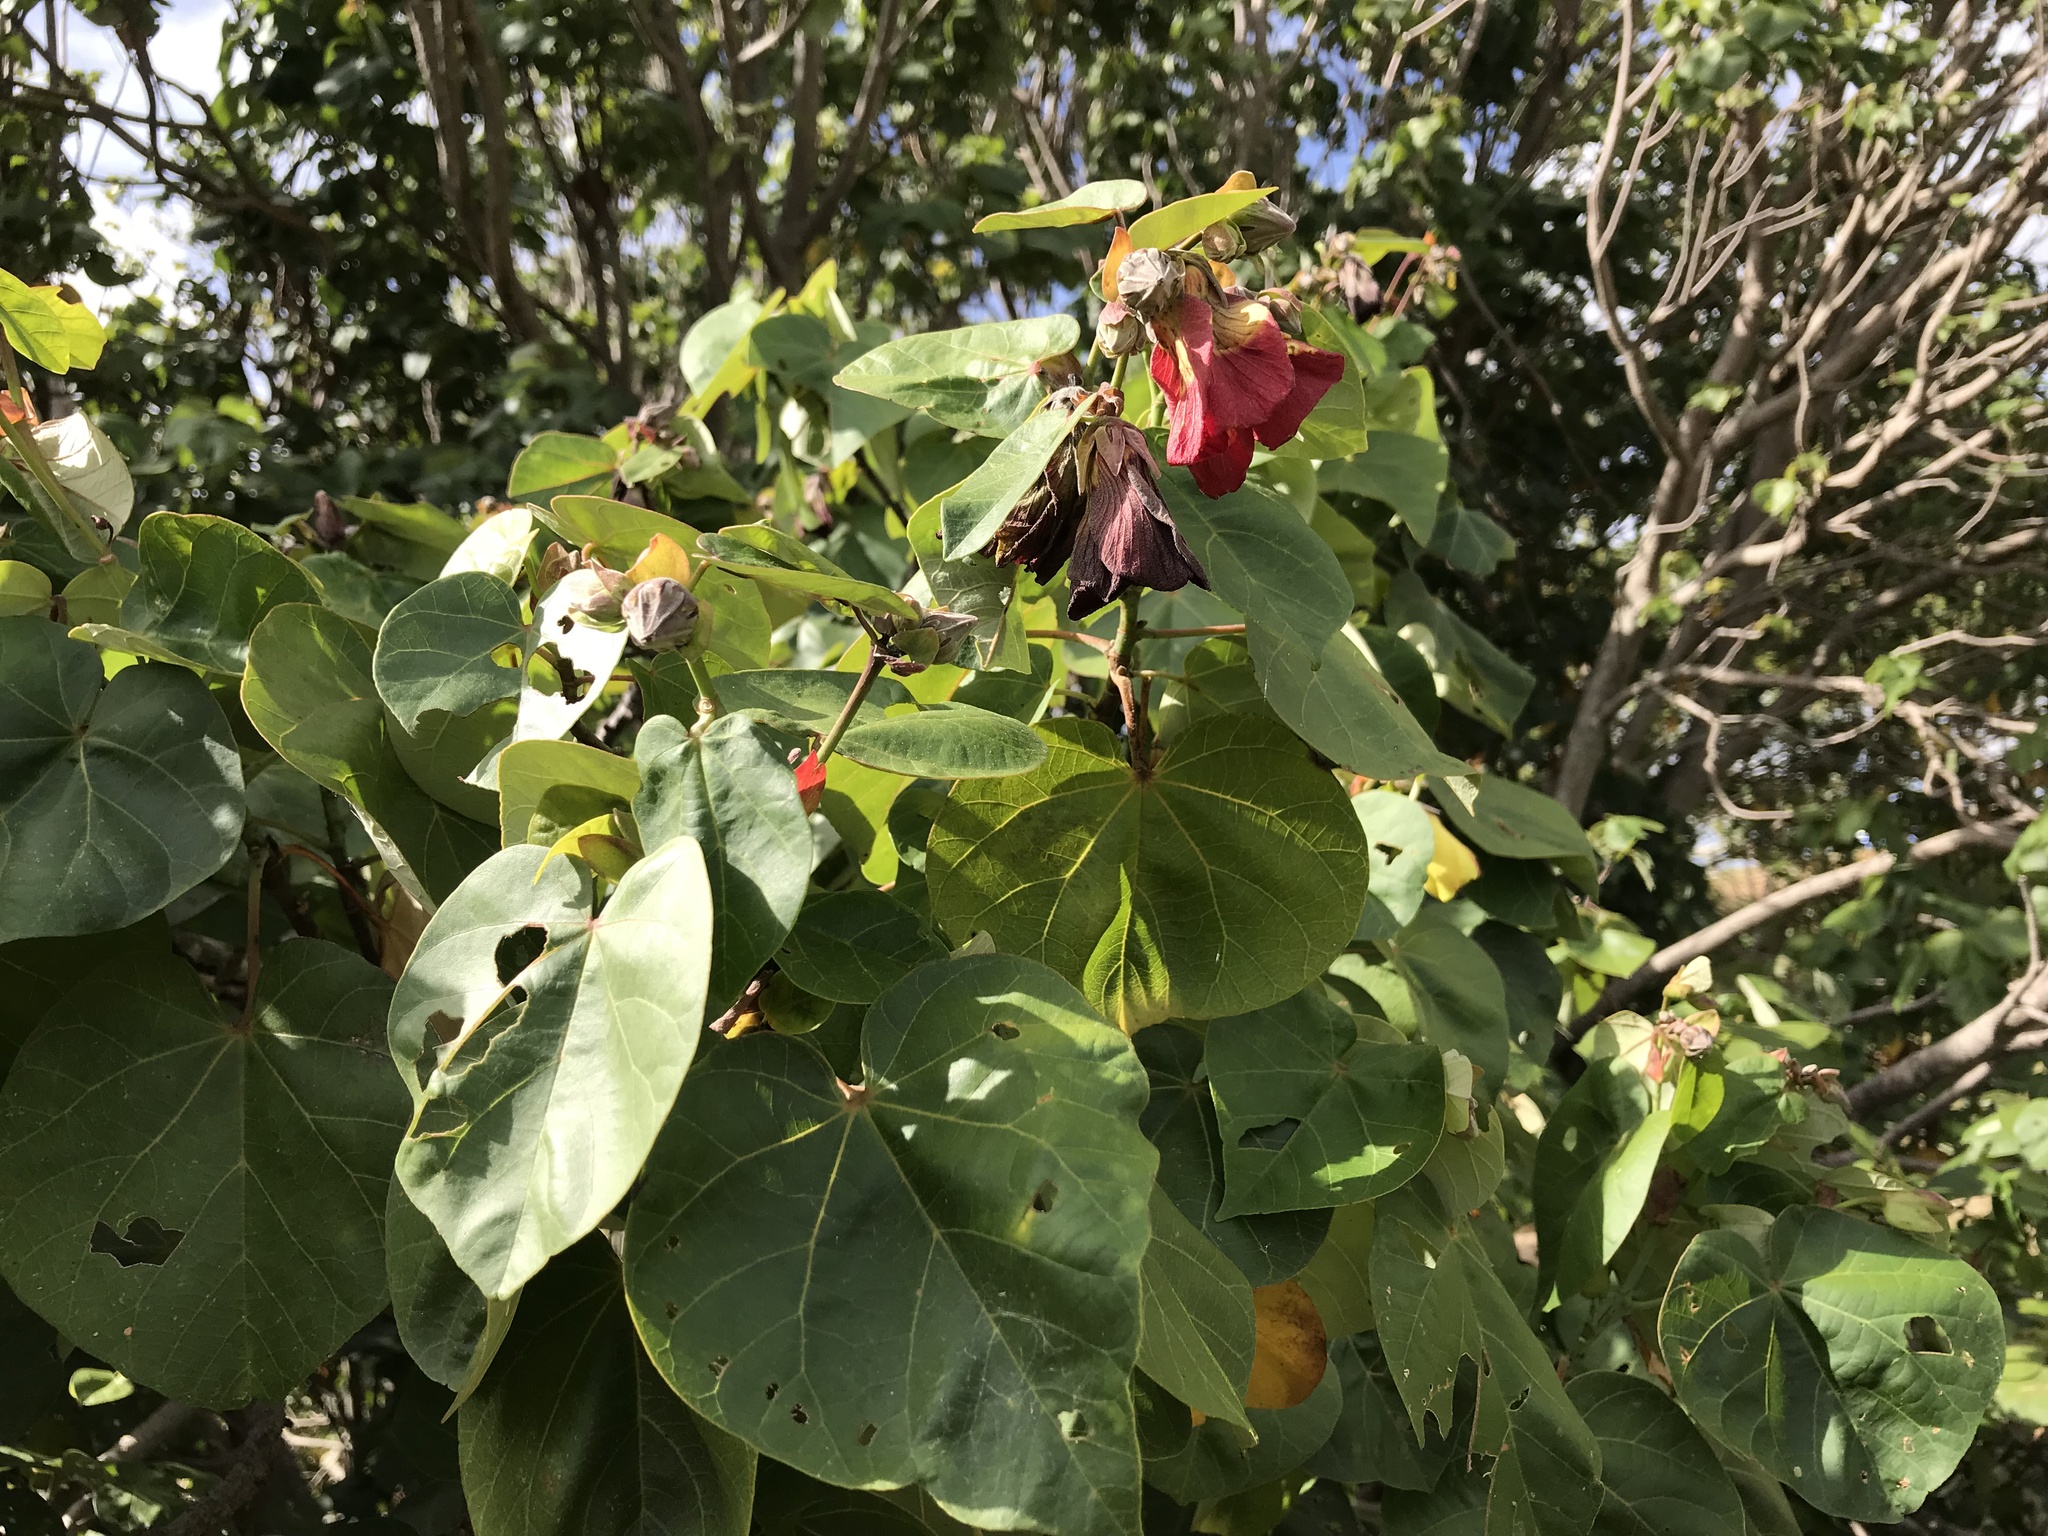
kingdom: Plantae
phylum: Tracheophyta
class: Magnoliopsida
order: Malvales
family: Malvaceae
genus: Talipariti
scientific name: Talipariti tiliaceum
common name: Sea hibiscus
